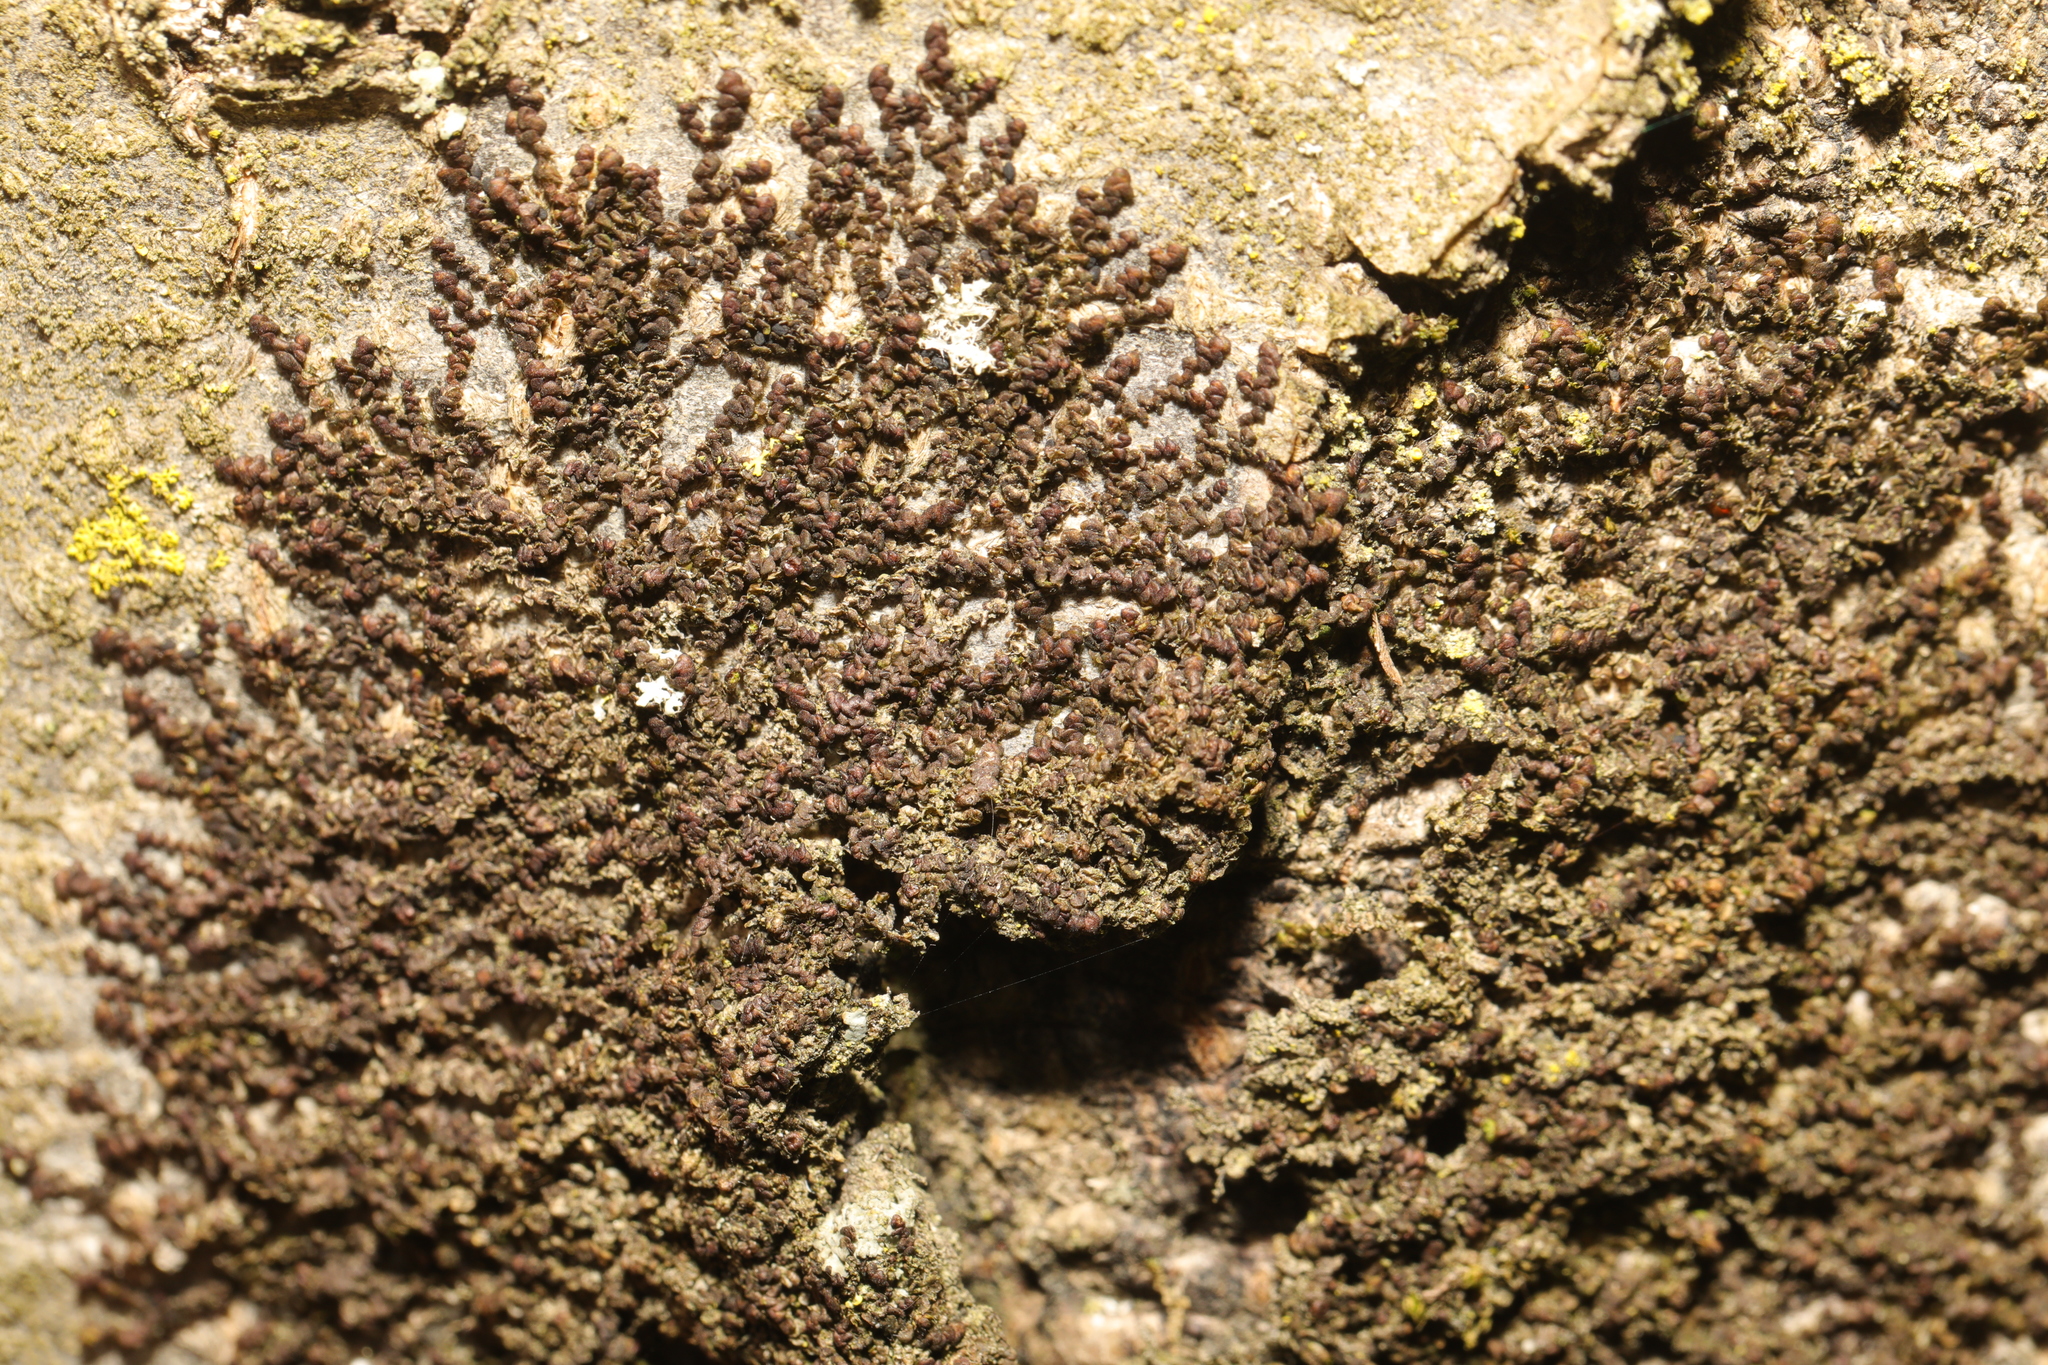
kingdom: Plantae
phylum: Marchantiophyta
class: Jungermanniopsida
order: Porellales
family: Frullaniaceae
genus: Frullania
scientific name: Frullania dilatata
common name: Dilated scalewort
